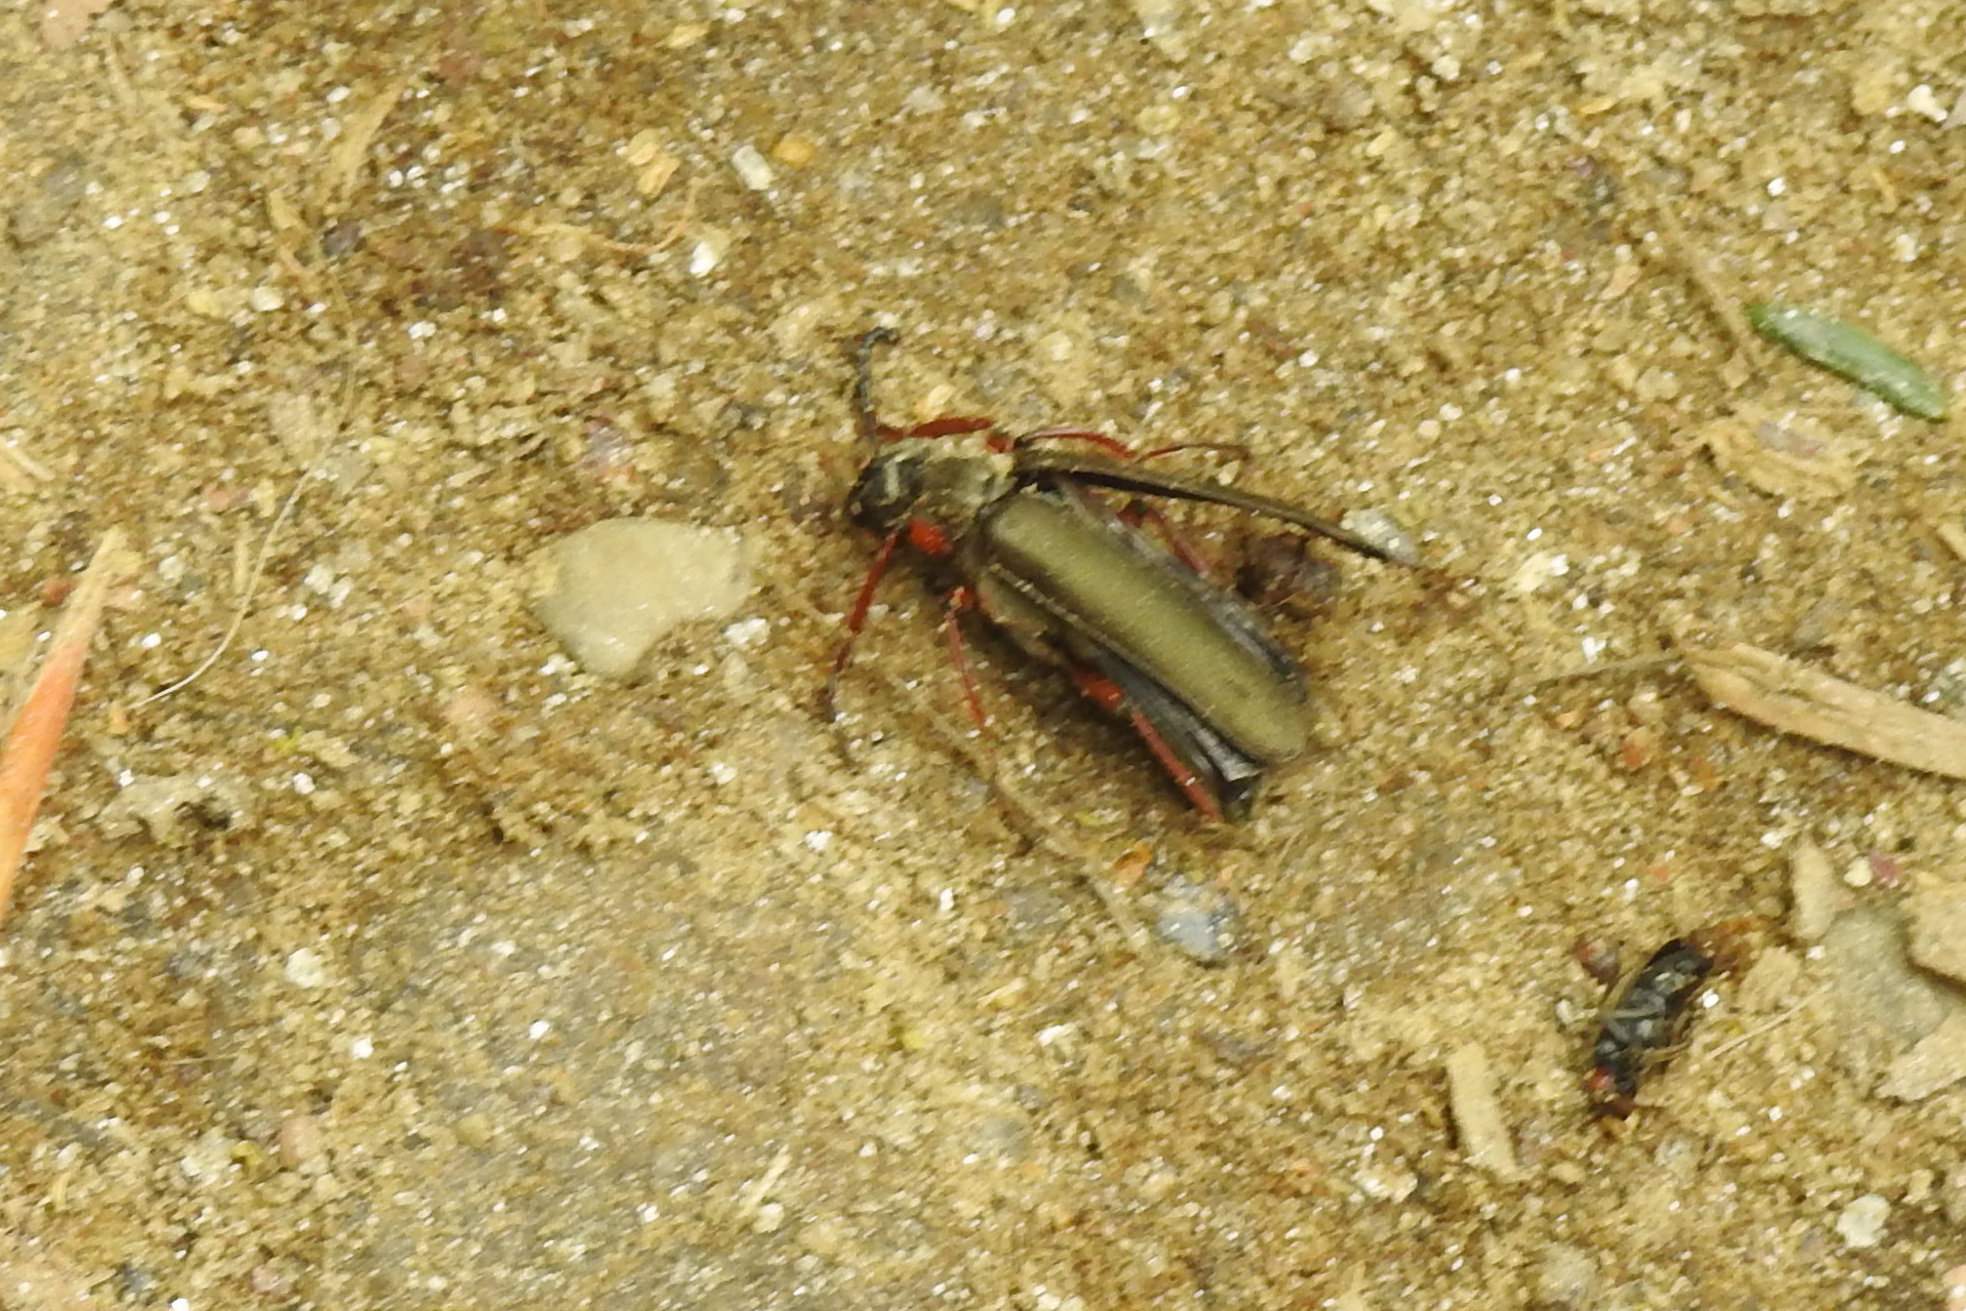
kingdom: Animalia
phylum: Arthropoda
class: Insecta
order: Coleoptera
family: Meloidae
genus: Lytta
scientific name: Lytta aenea
